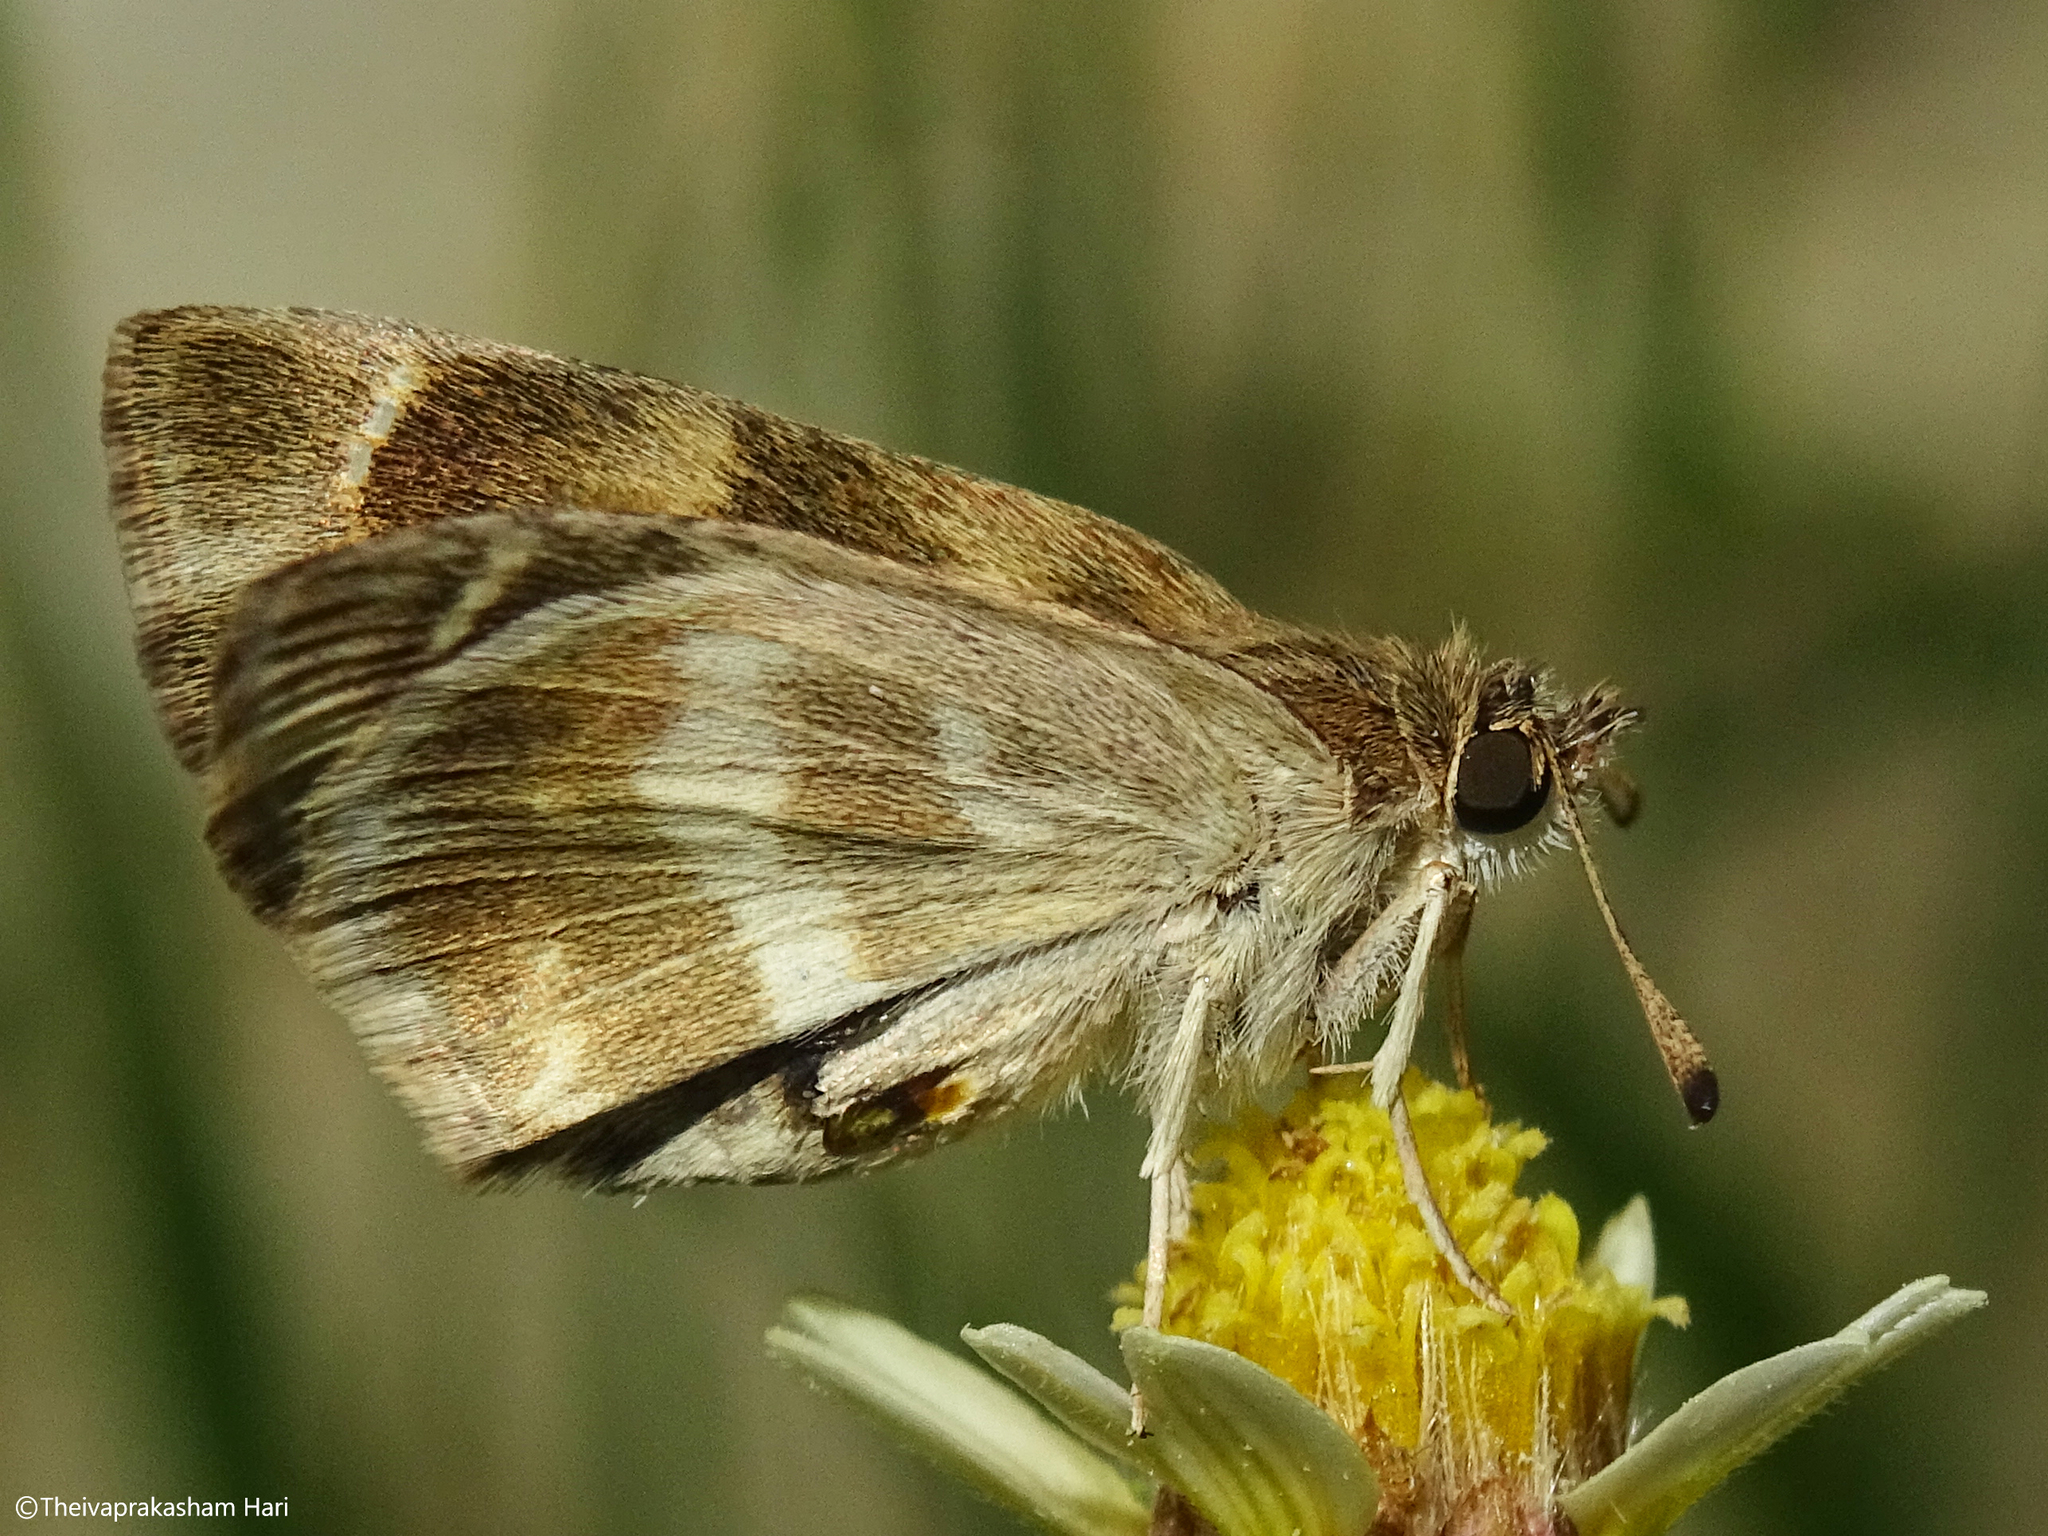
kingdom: Animalia
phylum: Arthropoda
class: Insecta
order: Lepidoptera
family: Hesperiidae
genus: Gomalia
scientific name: Gomalia elma
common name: Green-marbled skipper
